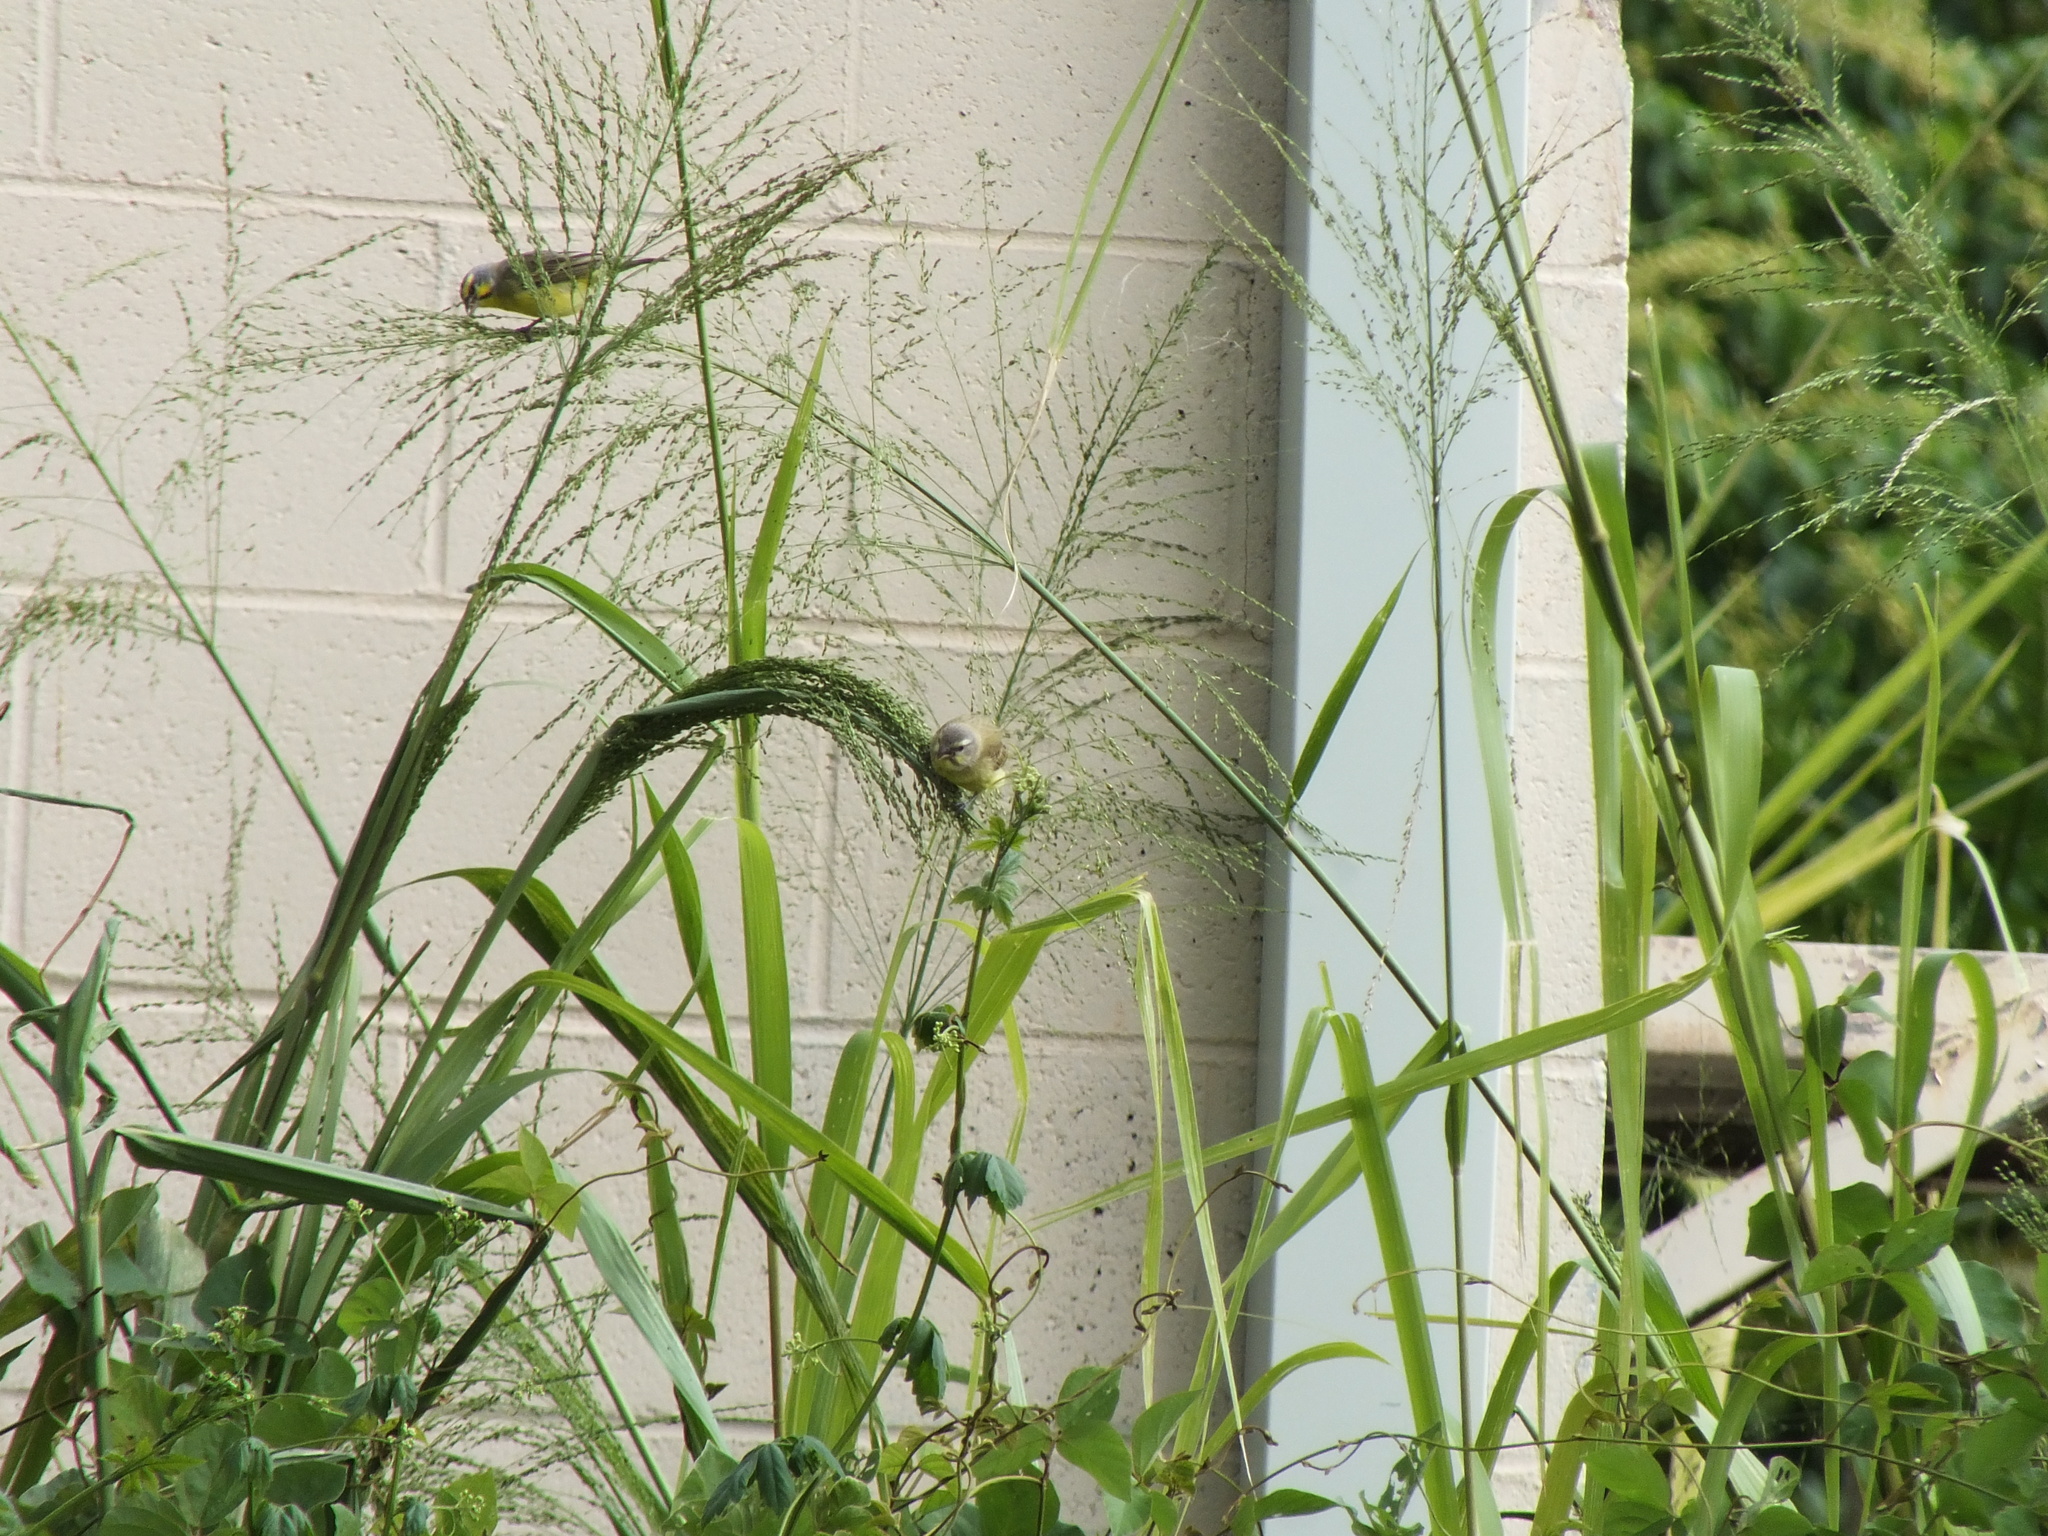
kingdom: Animalia
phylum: Chordata
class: Aves
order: Passeriformes
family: Fringillidae
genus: Crithagra
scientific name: Crithagra mozambica
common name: Yellow-fronted canary
